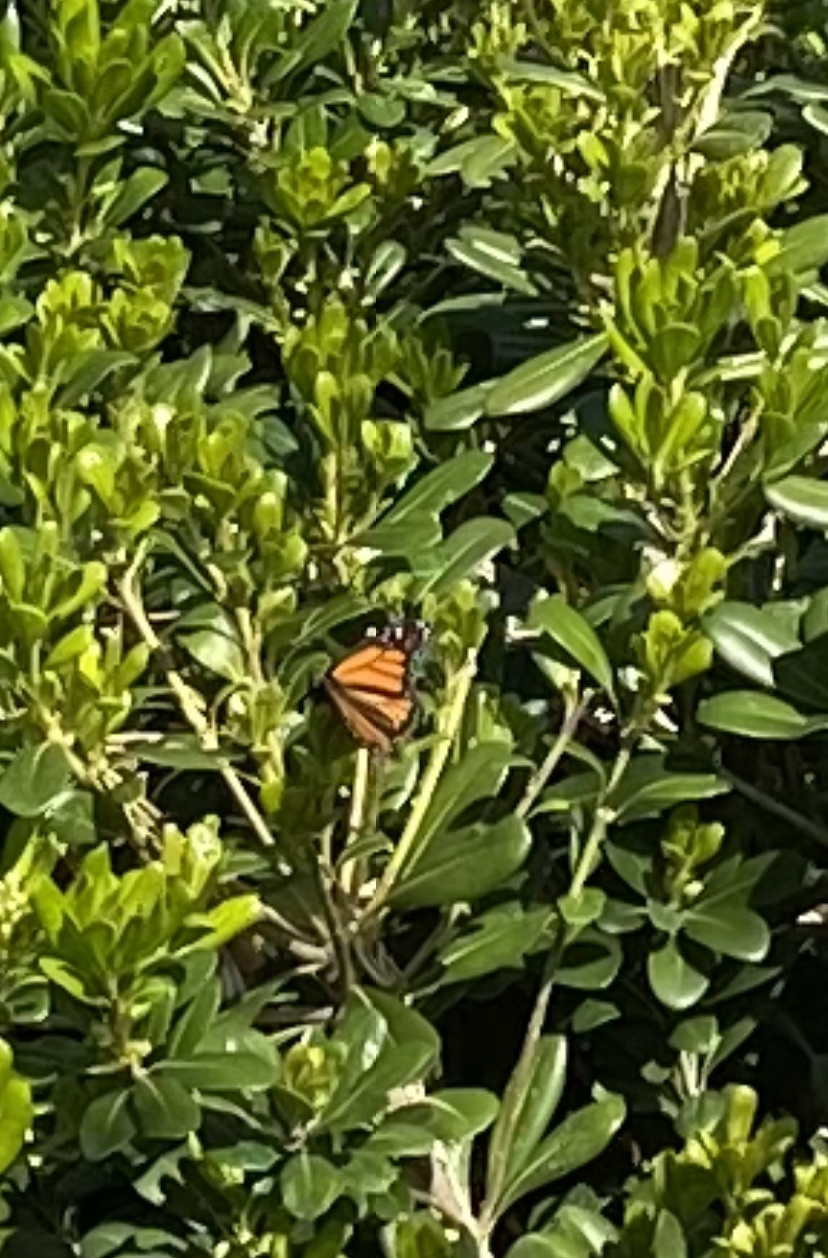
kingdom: Animalia
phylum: Arthropoda
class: Insecta
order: Lepidoptera
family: Nymphalidae
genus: Danaus
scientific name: Danaus plexippus
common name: Monarch
